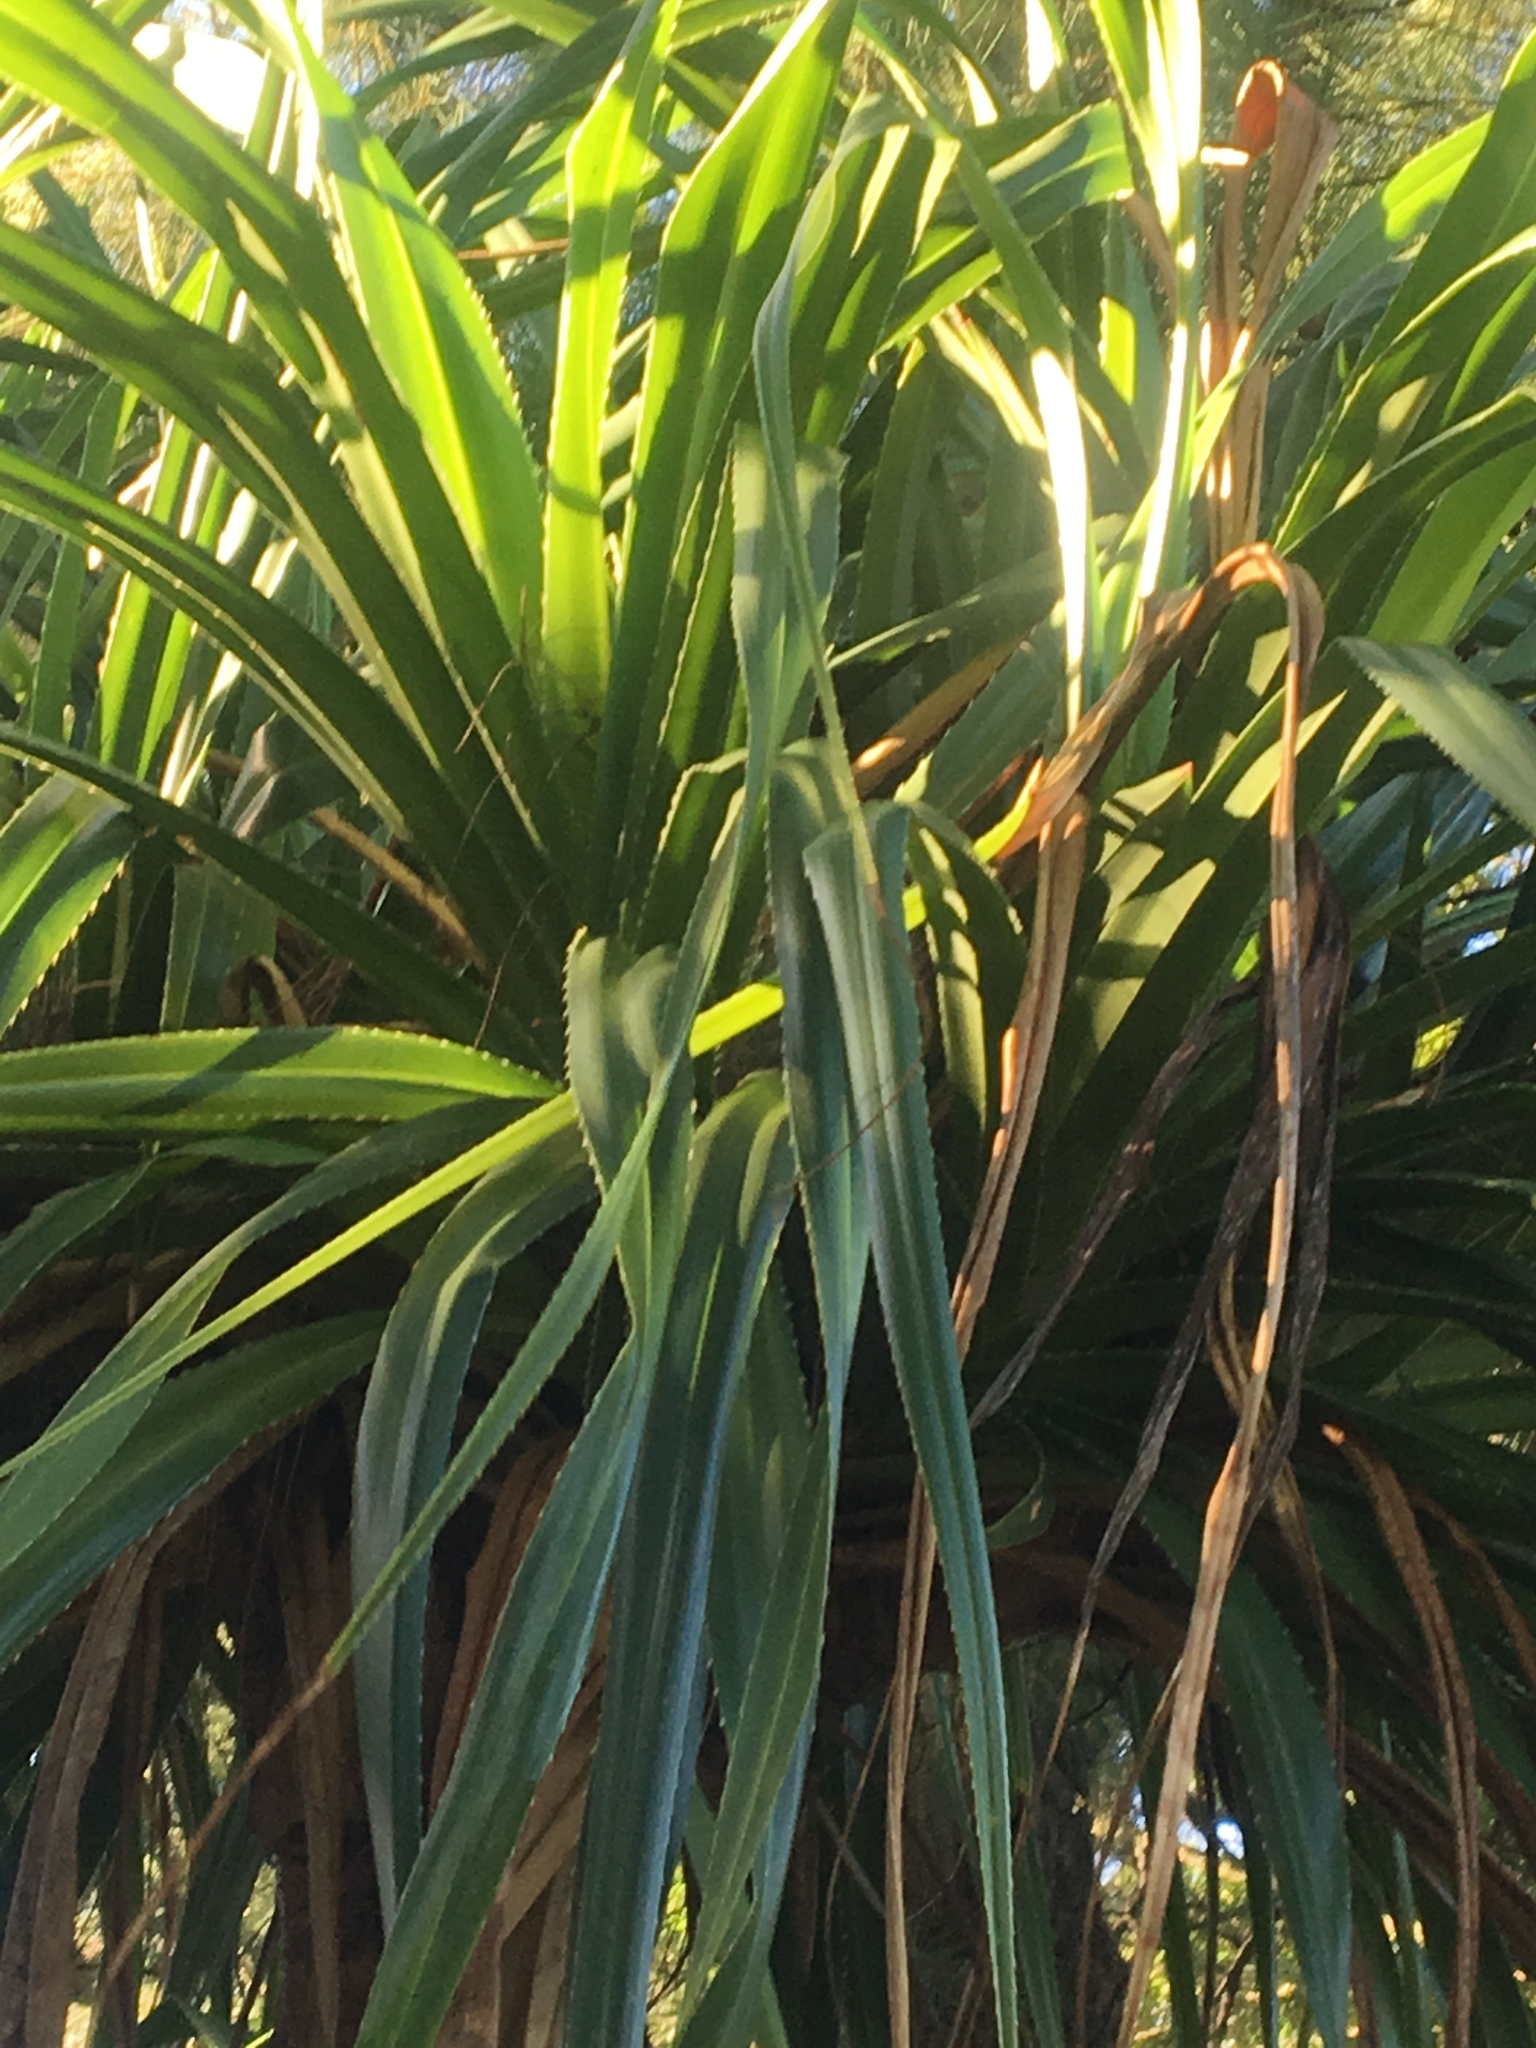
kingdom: Plantae
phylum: Tracheophyta
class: Liliopsida
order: Pandanales
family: Pandanaceae
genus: Pandanus
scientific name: Pandanus tectorius
